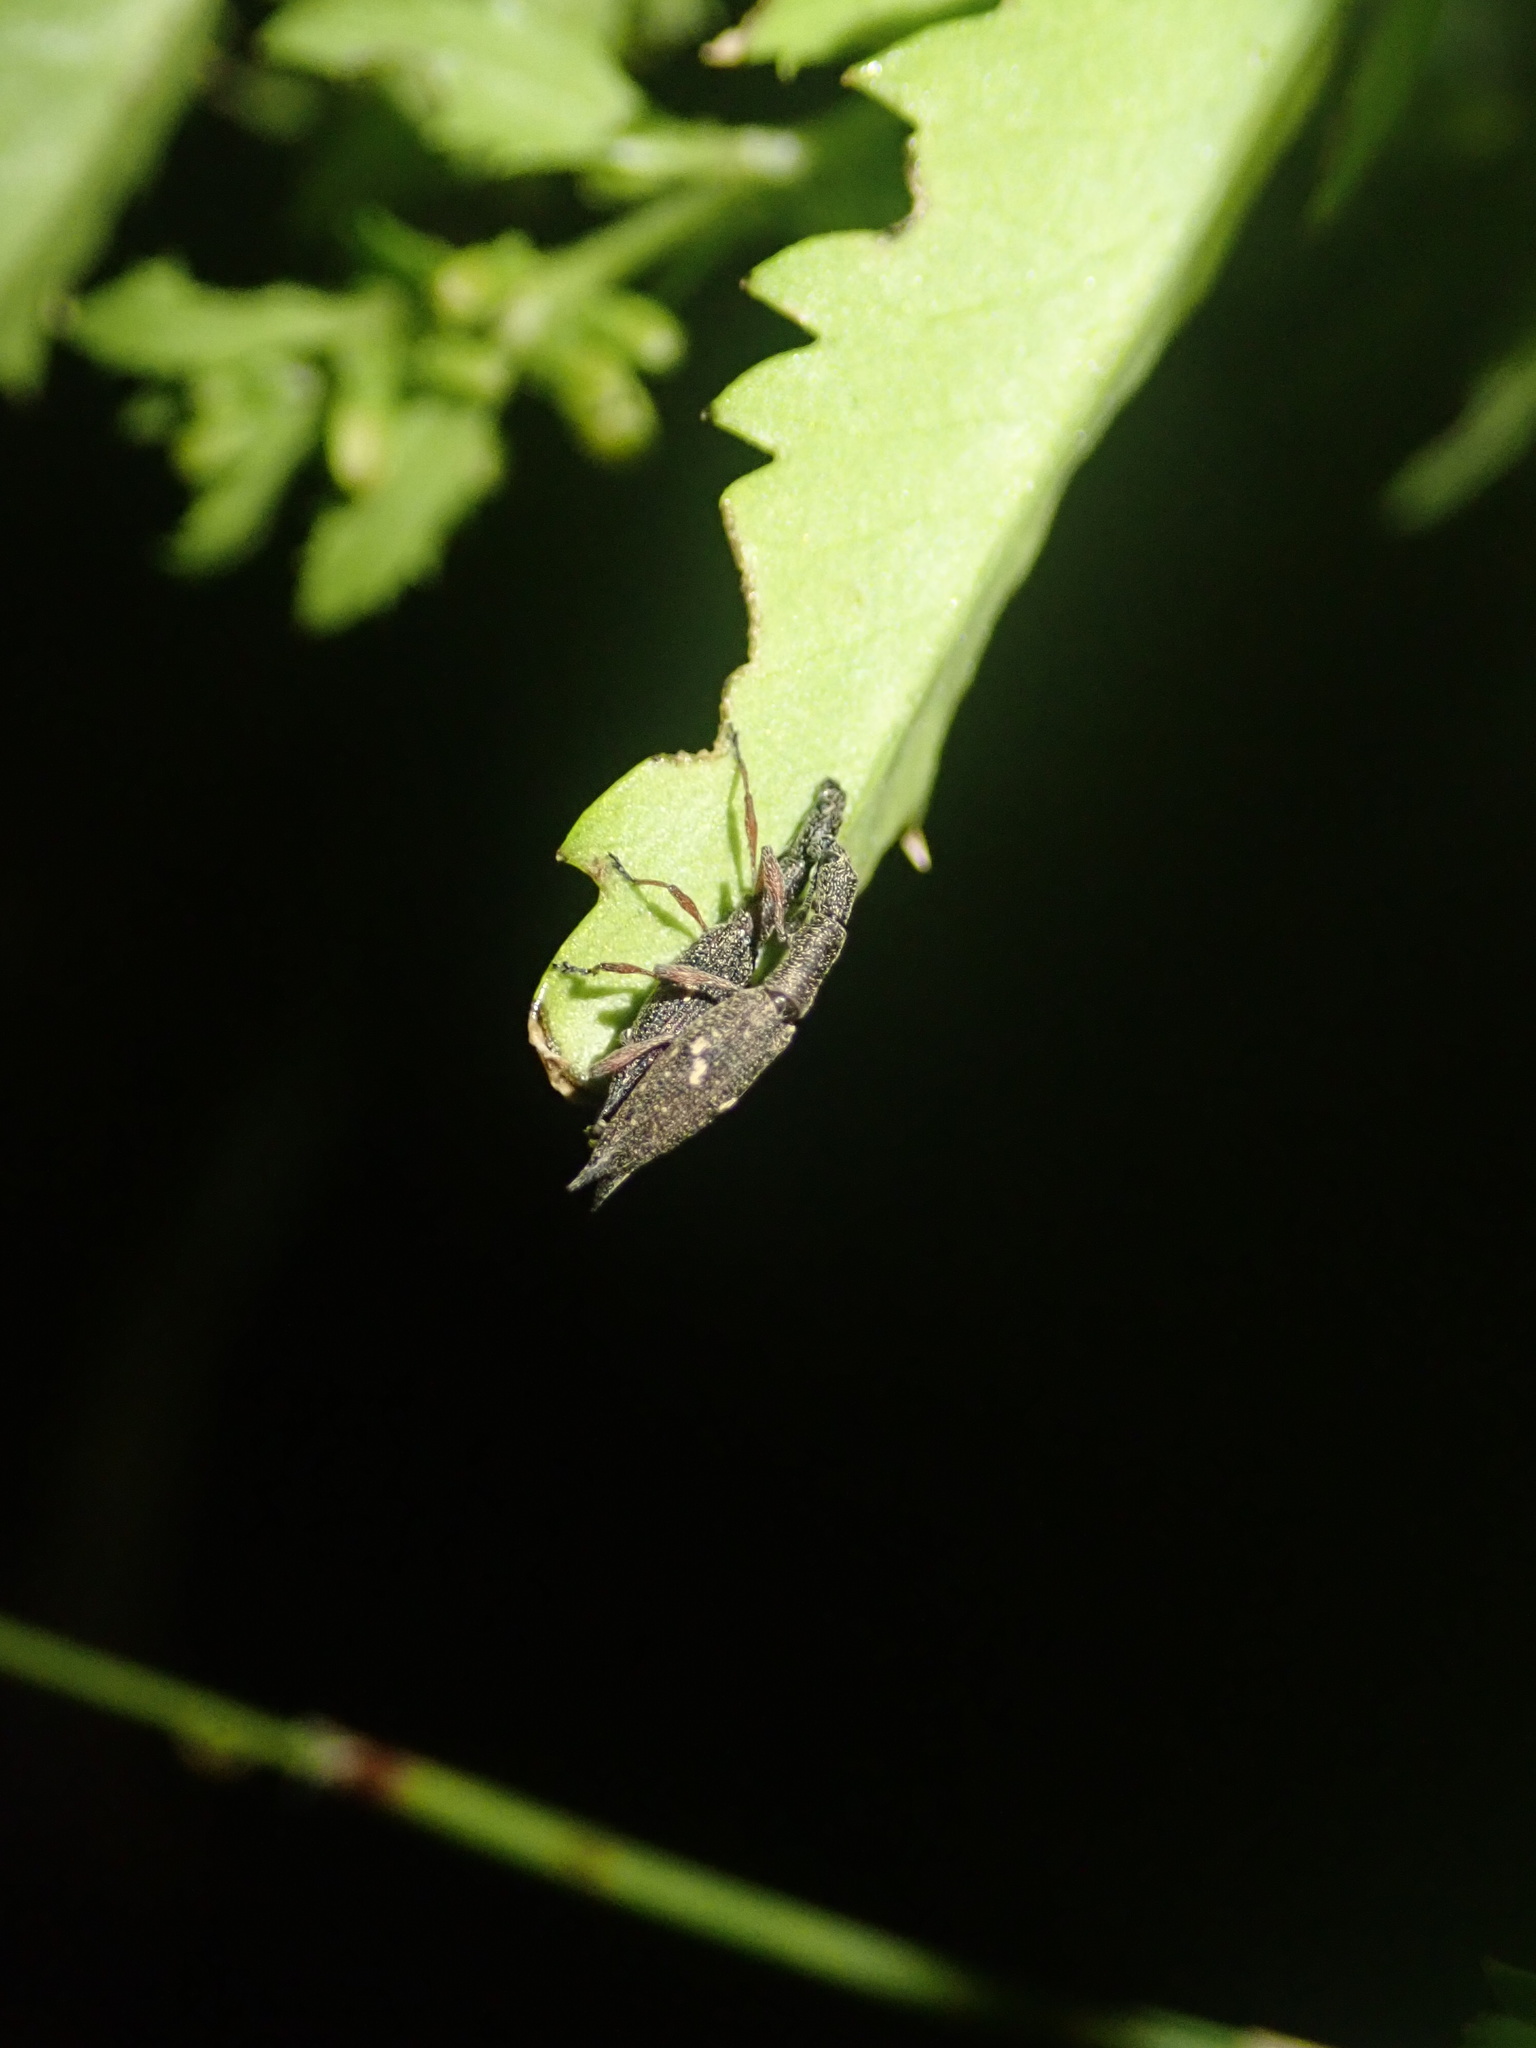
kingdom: Animalia
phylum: Arthropoda
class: Insecta
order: Coleoptera
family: Curculionidae
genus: Rhadinosomus
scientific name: Rhadinosomus acuminatus
